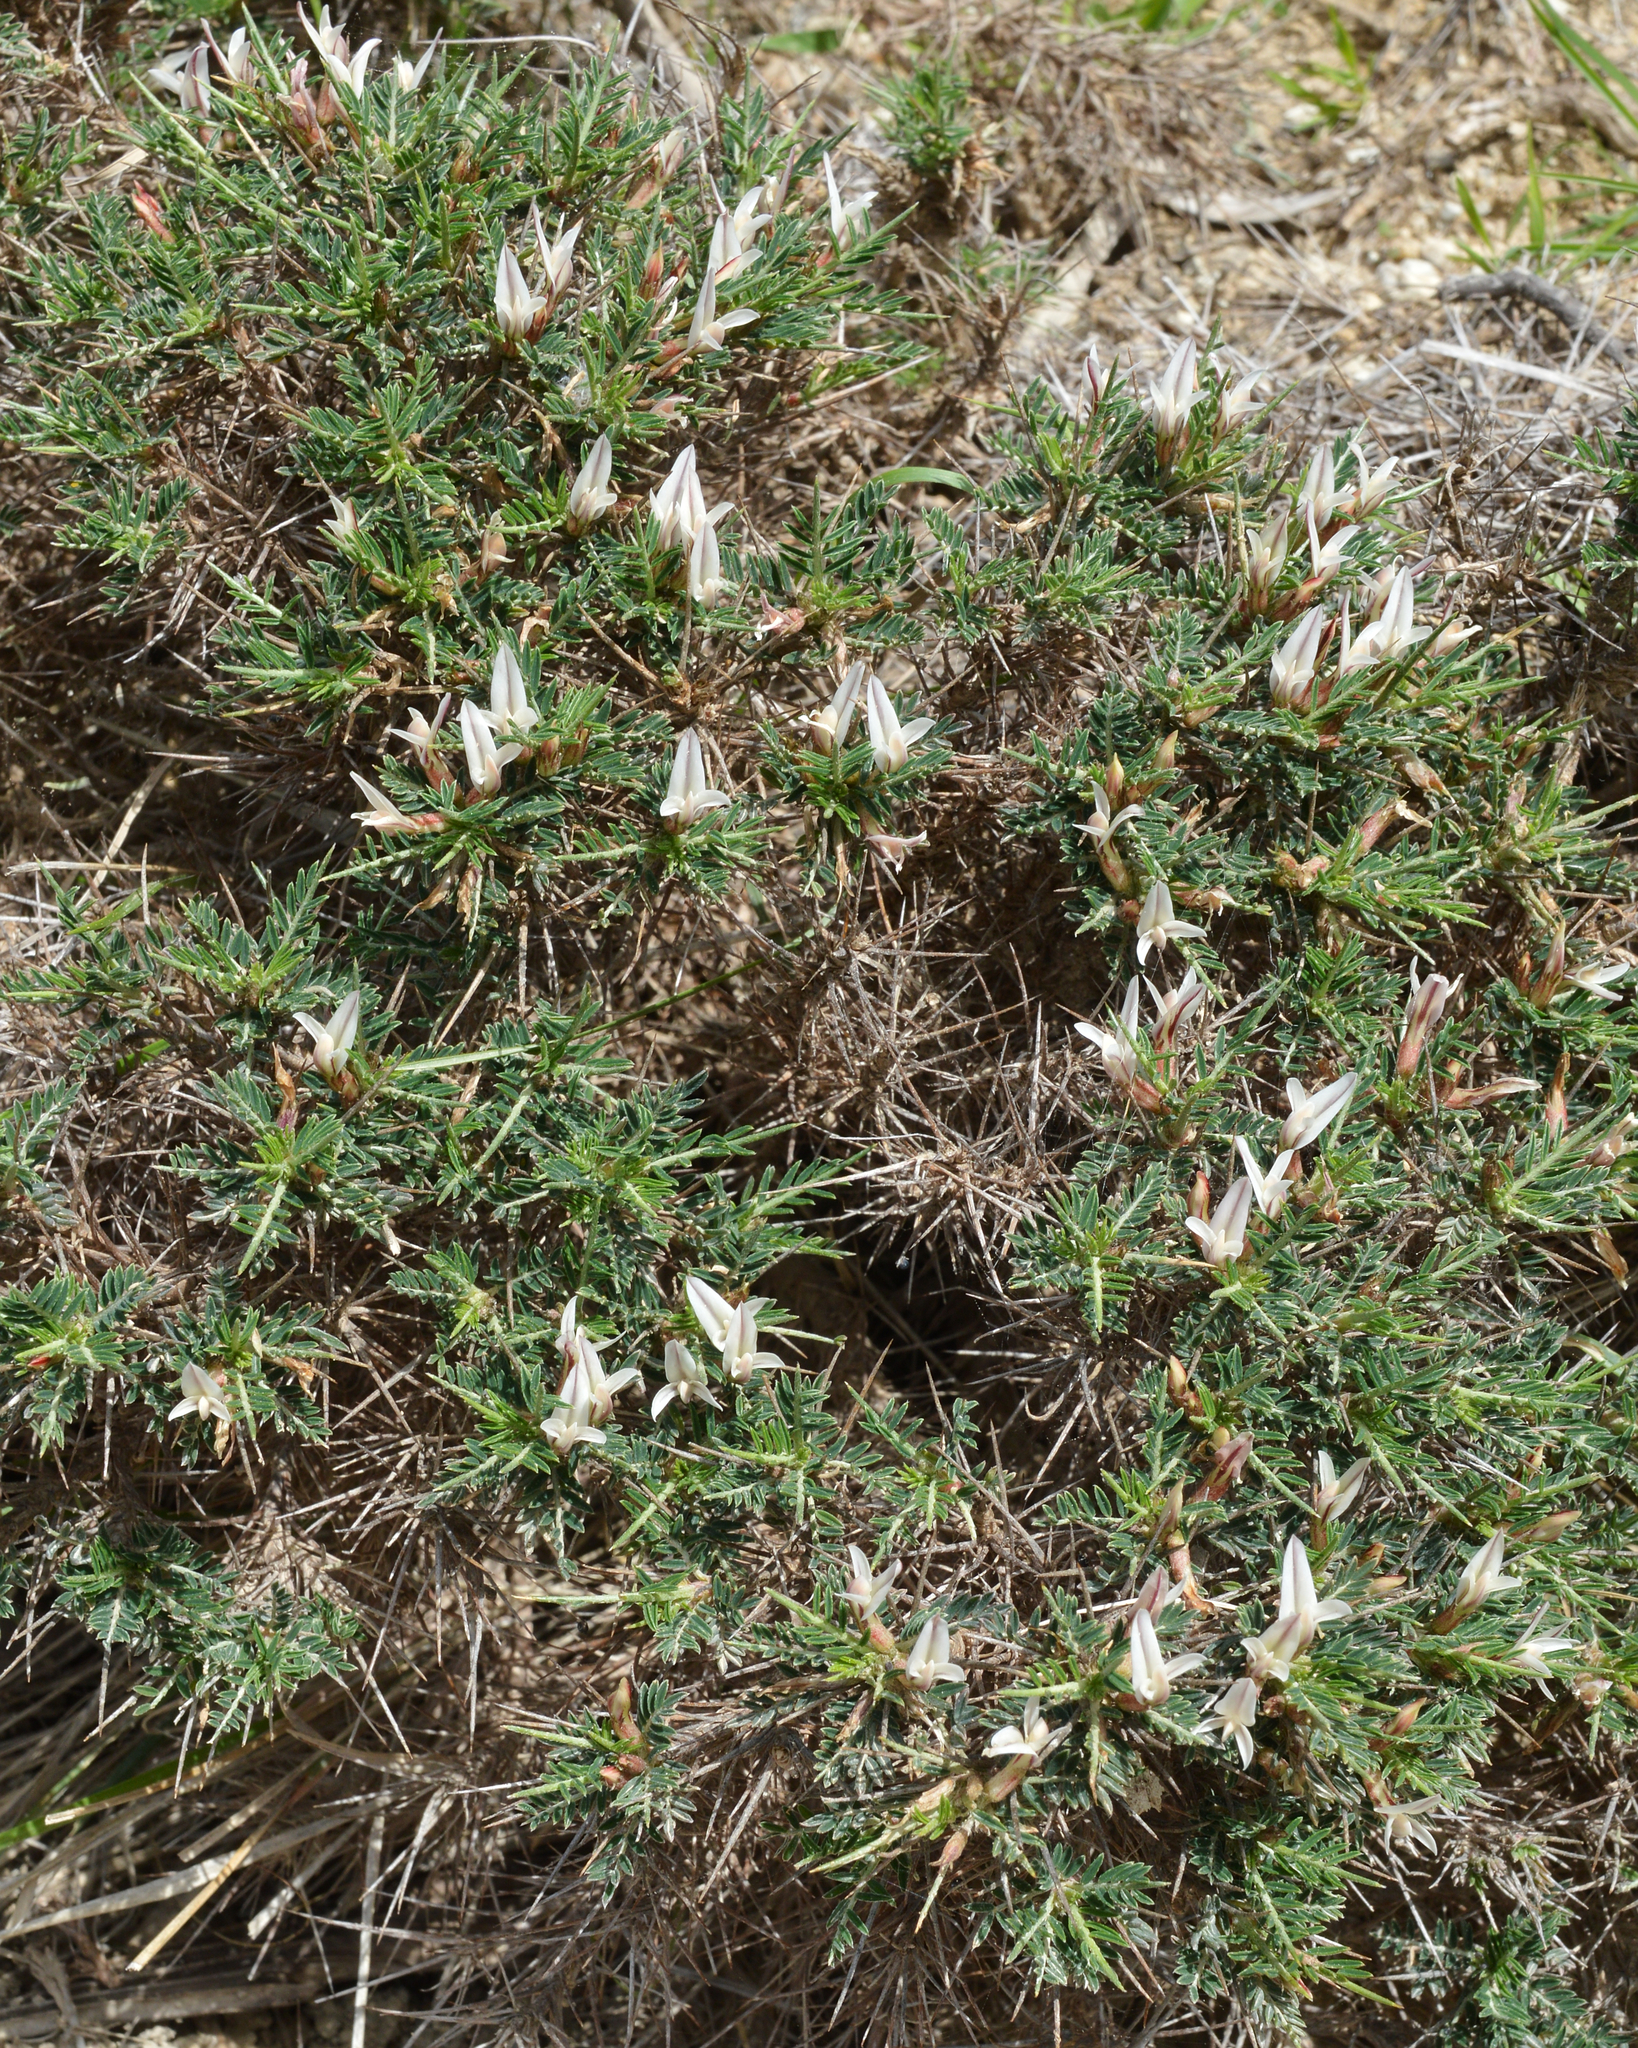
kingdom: Plantae
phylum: Tracheophyta
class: Magnoliopsida
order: Fabales
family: Fabaceae
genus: Astragalus
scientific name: Astragalus balearicus
